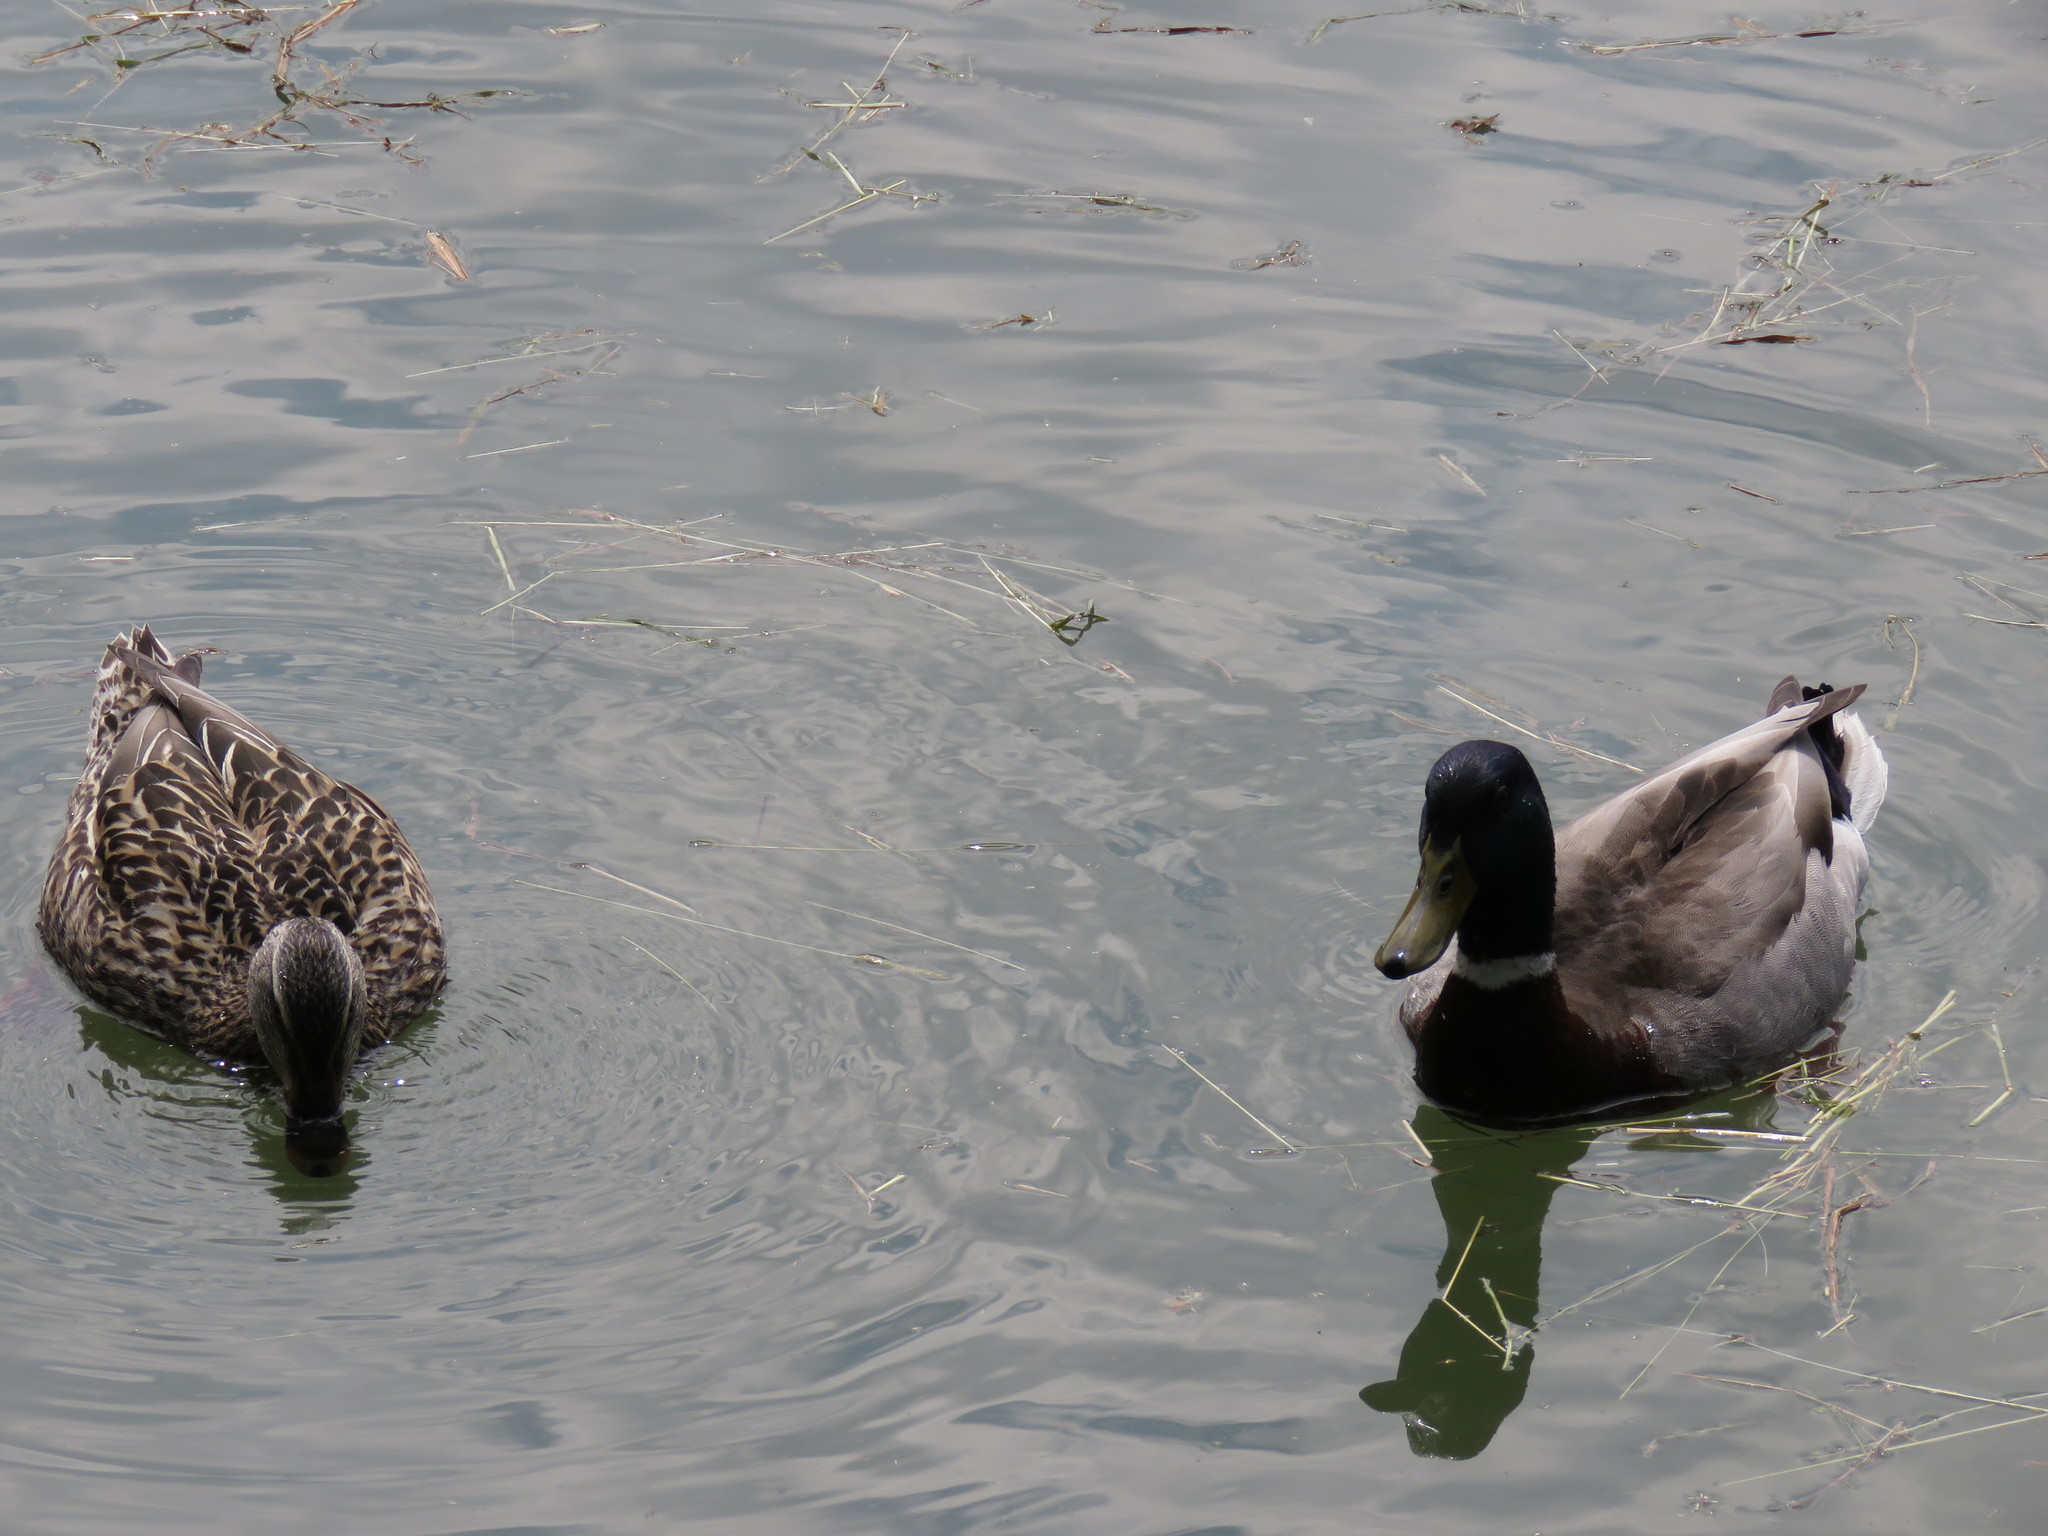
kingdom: Animalia
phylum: Chordata
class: Aves
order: Anseriformes
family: Anatidae
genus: Anas
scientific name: Anas platyrhynchos
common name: Mallard
